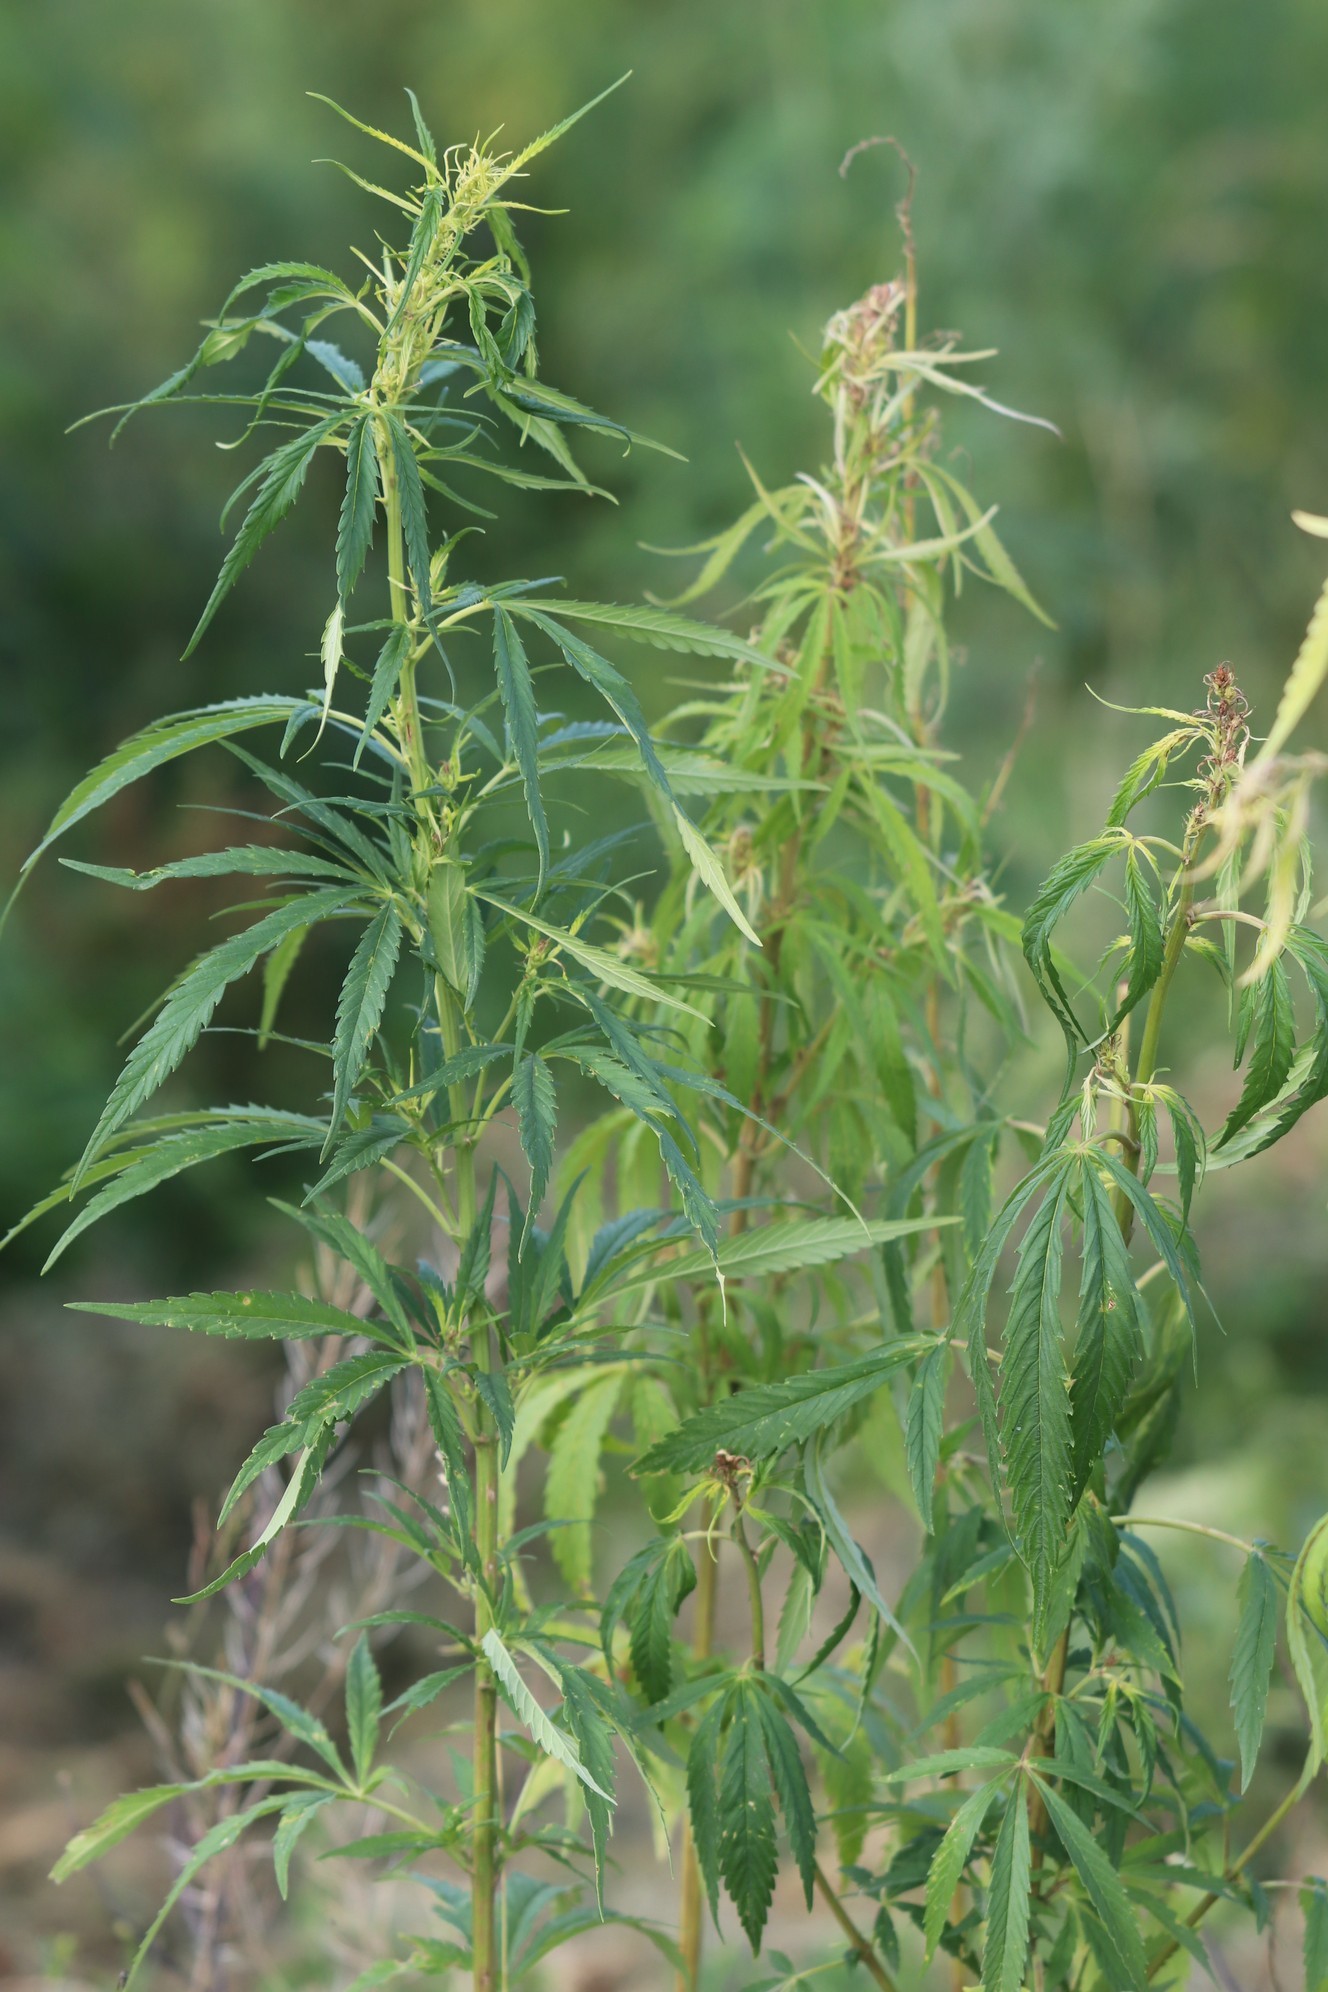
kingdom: Plantae
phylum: Tracheophyta
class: Magnoliopsida
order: Rosales
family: Cannabaceae
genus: Cannabis
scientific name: Cannabis sativa
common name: Hemp
